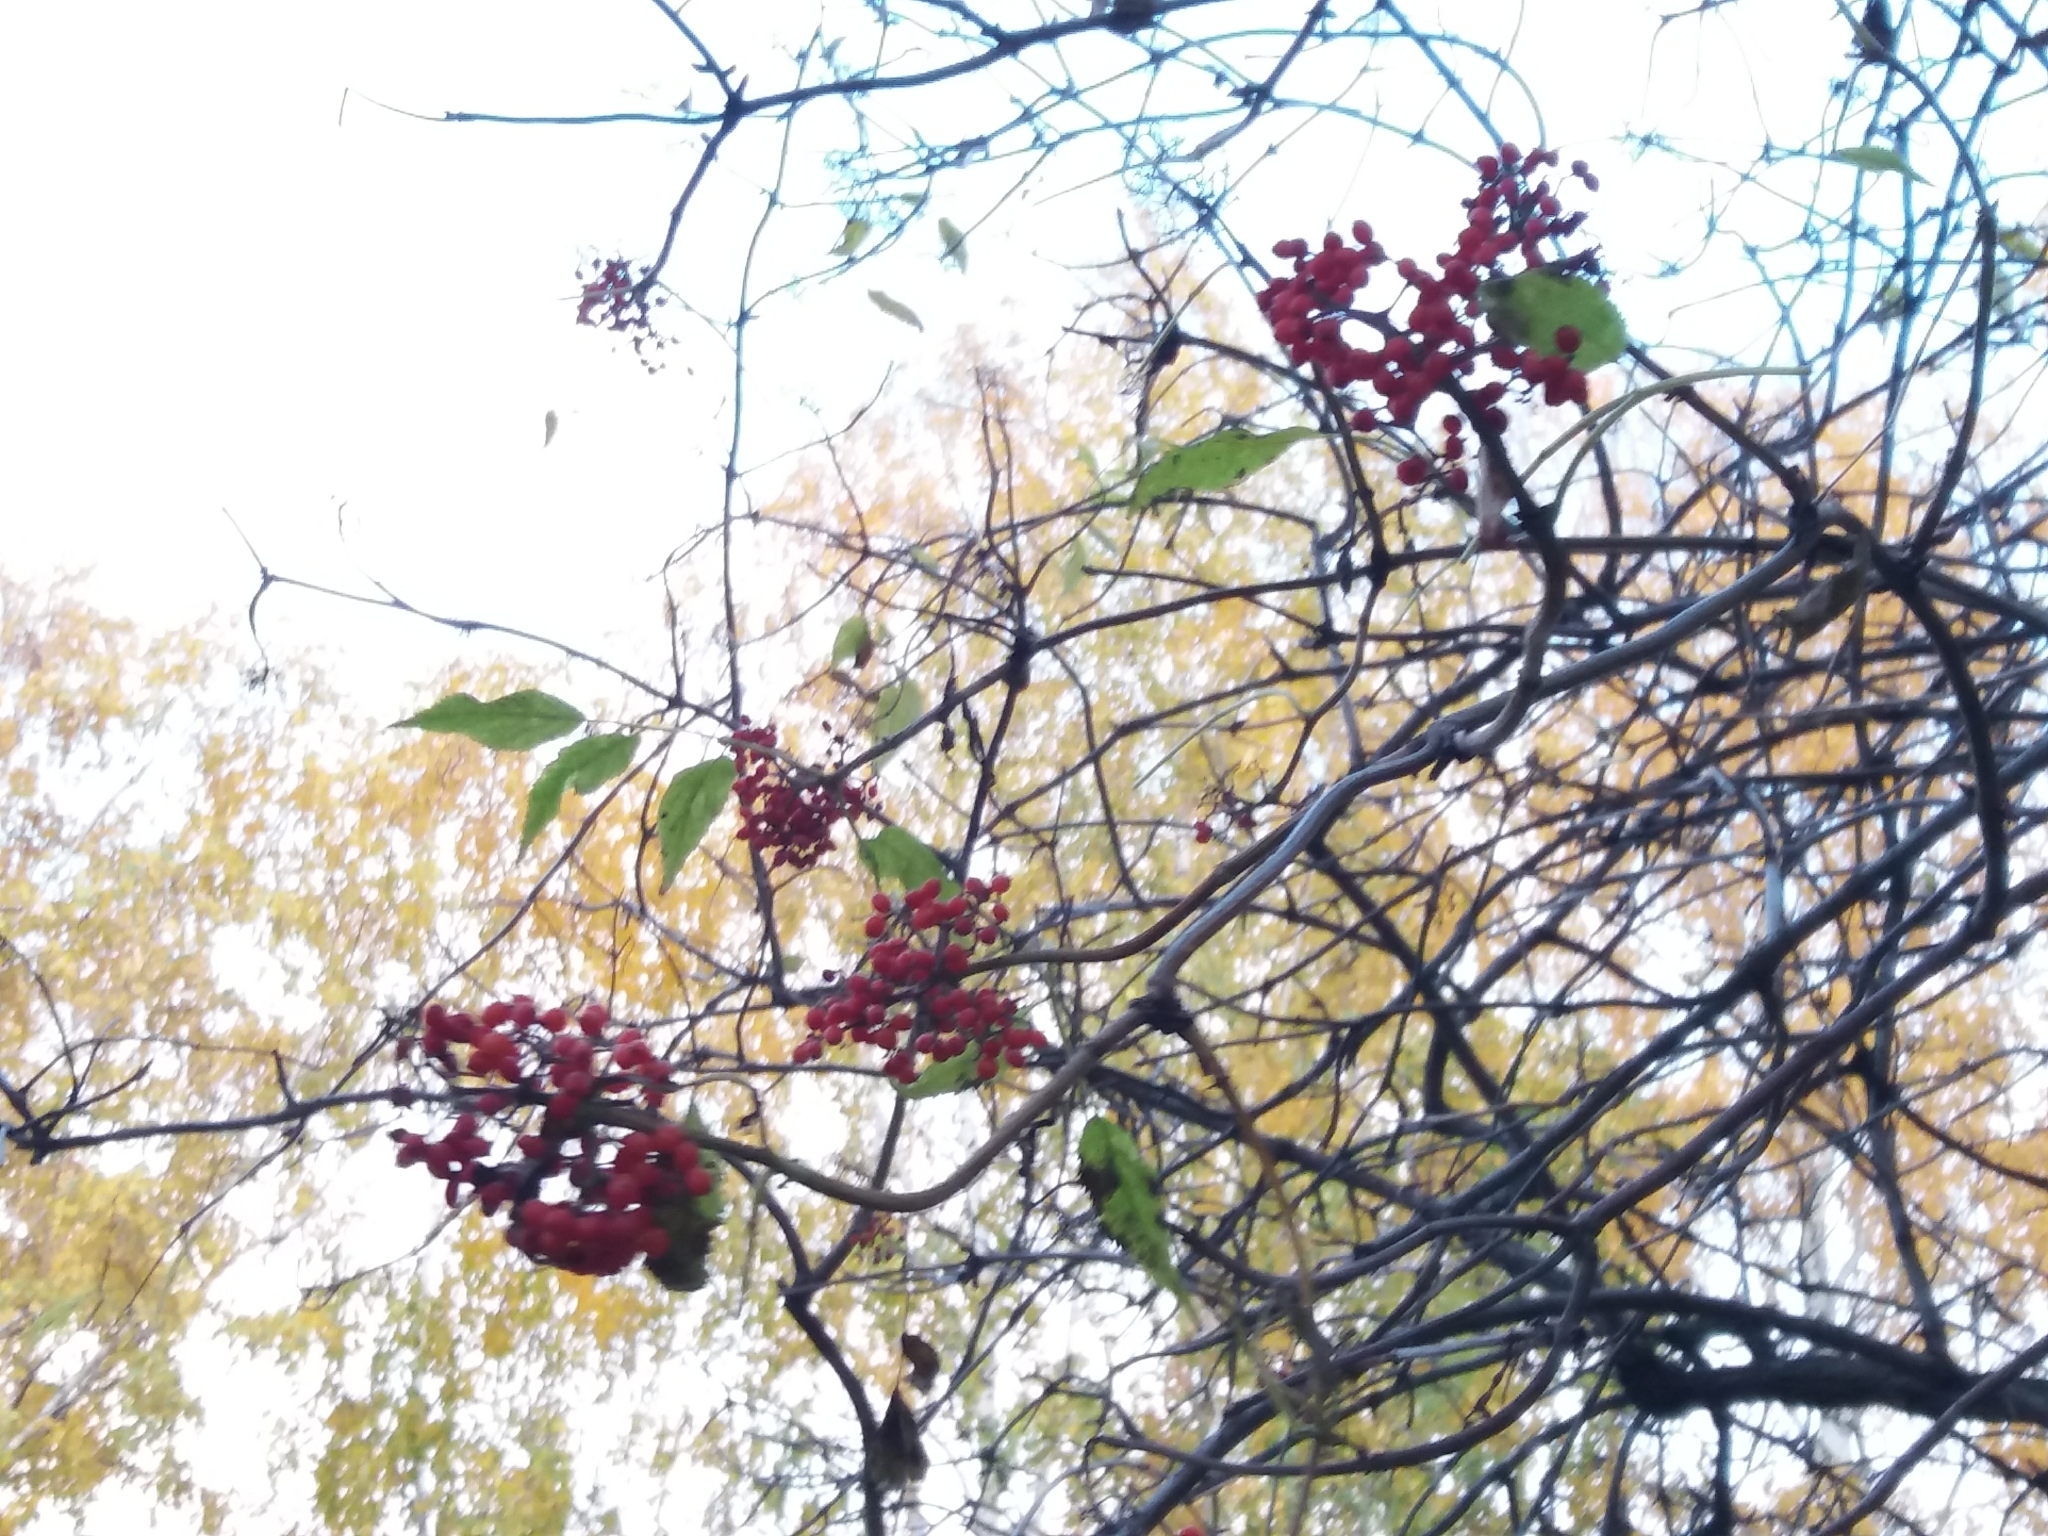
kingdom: Plantae
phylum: Tracheophyta
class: Magnoliopsida
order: Dipsacales
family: Viburnaceae
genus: Sambucus
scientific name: Sambucus racemosa
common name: Red-berried elder
